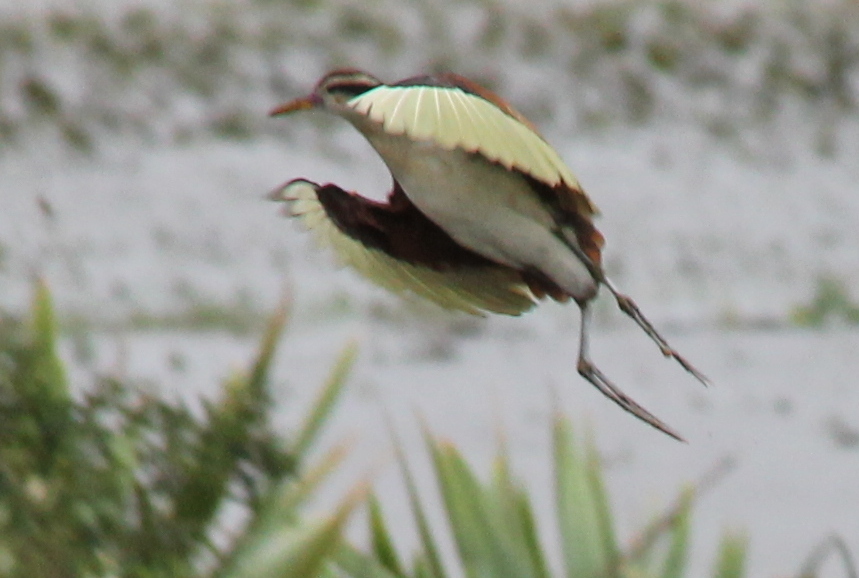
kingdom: Animalia
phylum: Chordata
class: Aves
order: Charadriiformes
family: Jacanidae
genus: Jacana
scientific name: Jacana jacana
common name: Wattled jacana
